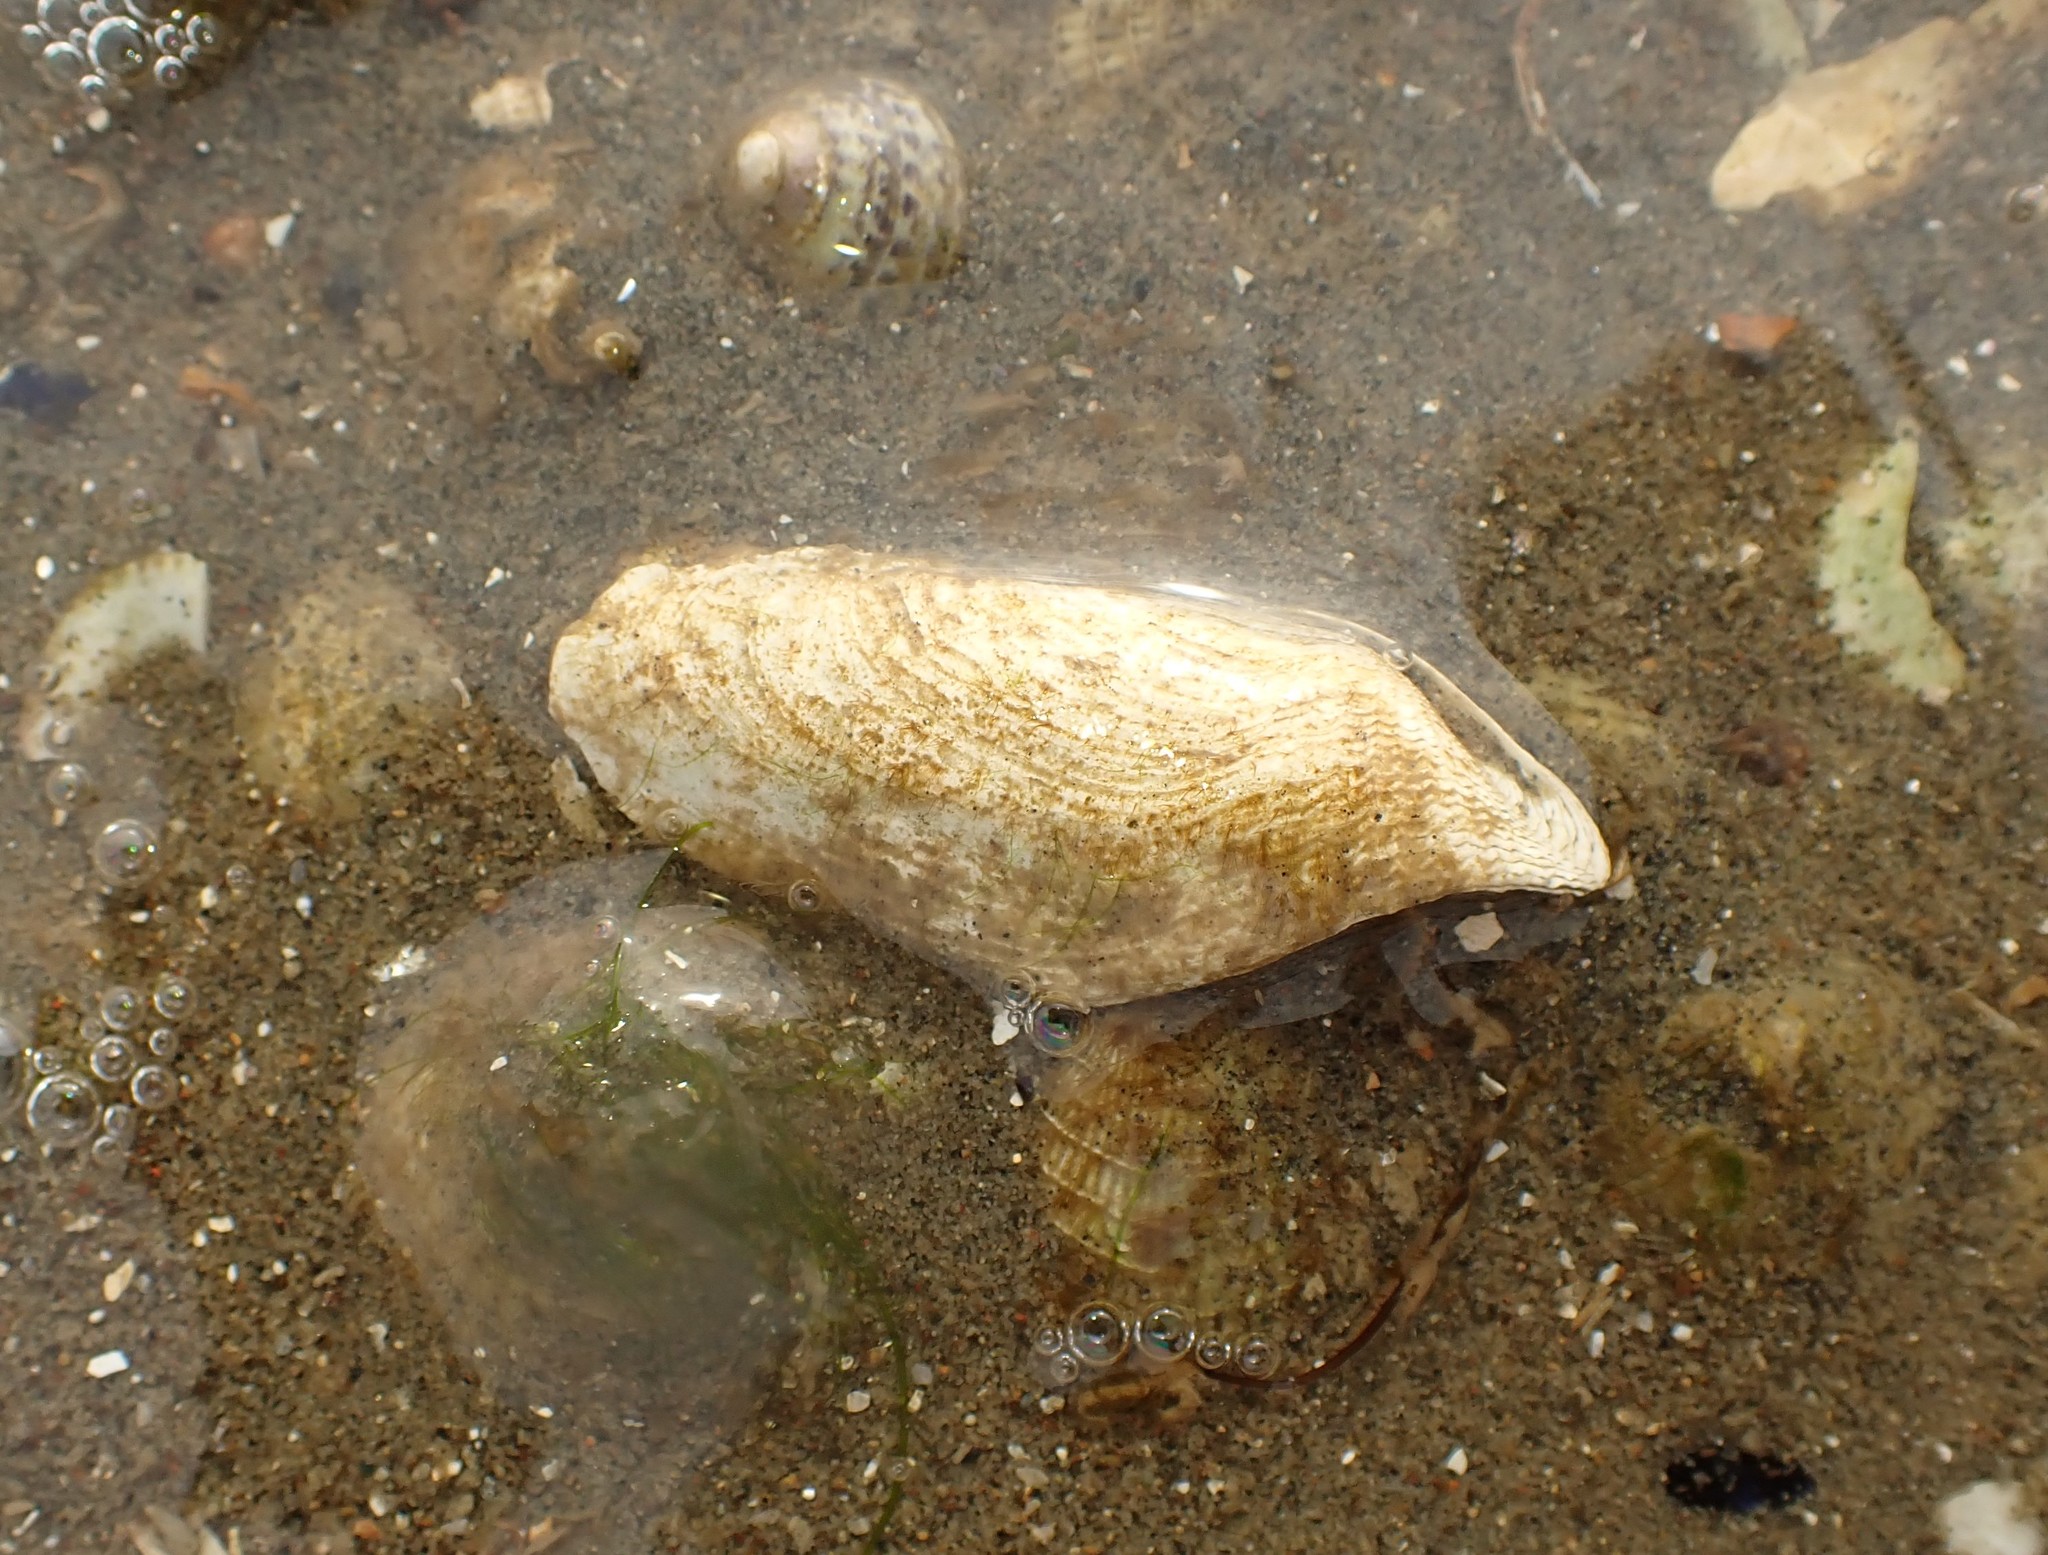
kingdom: Animalia
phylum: Mollusca
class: Bivalvia
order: Myida
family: Pholadidae
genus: Barnea
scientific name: Barnea similis
